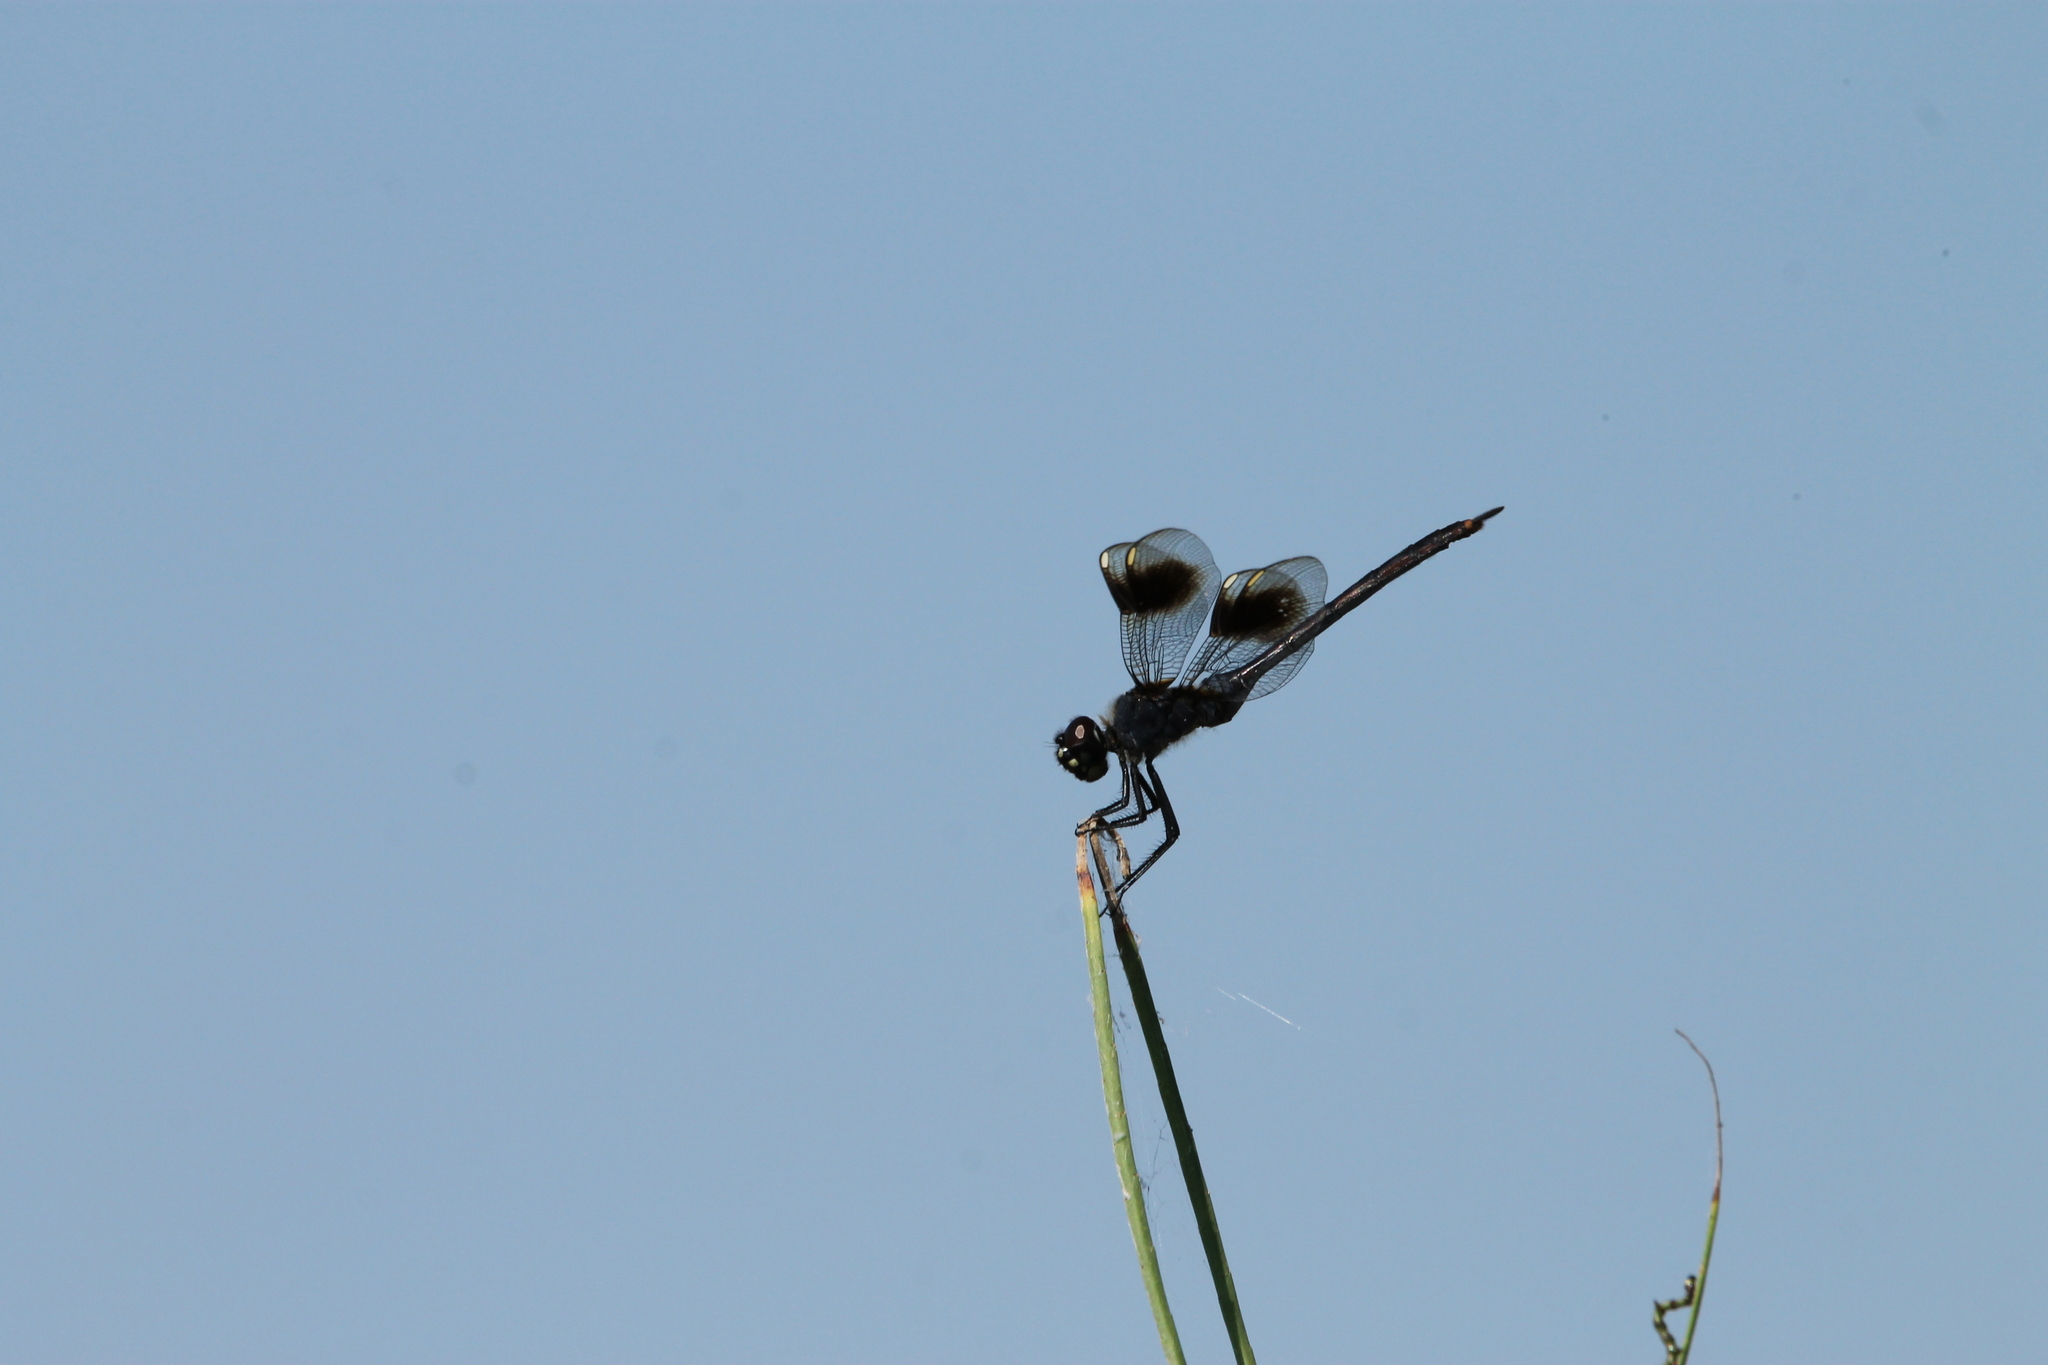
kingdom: Animalia
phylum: Arthropoda
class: Insecta
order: Odonata
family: Libellulidae
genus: Brachymesia
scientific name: Brachymesia gravida
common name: Four-spotted pennant
